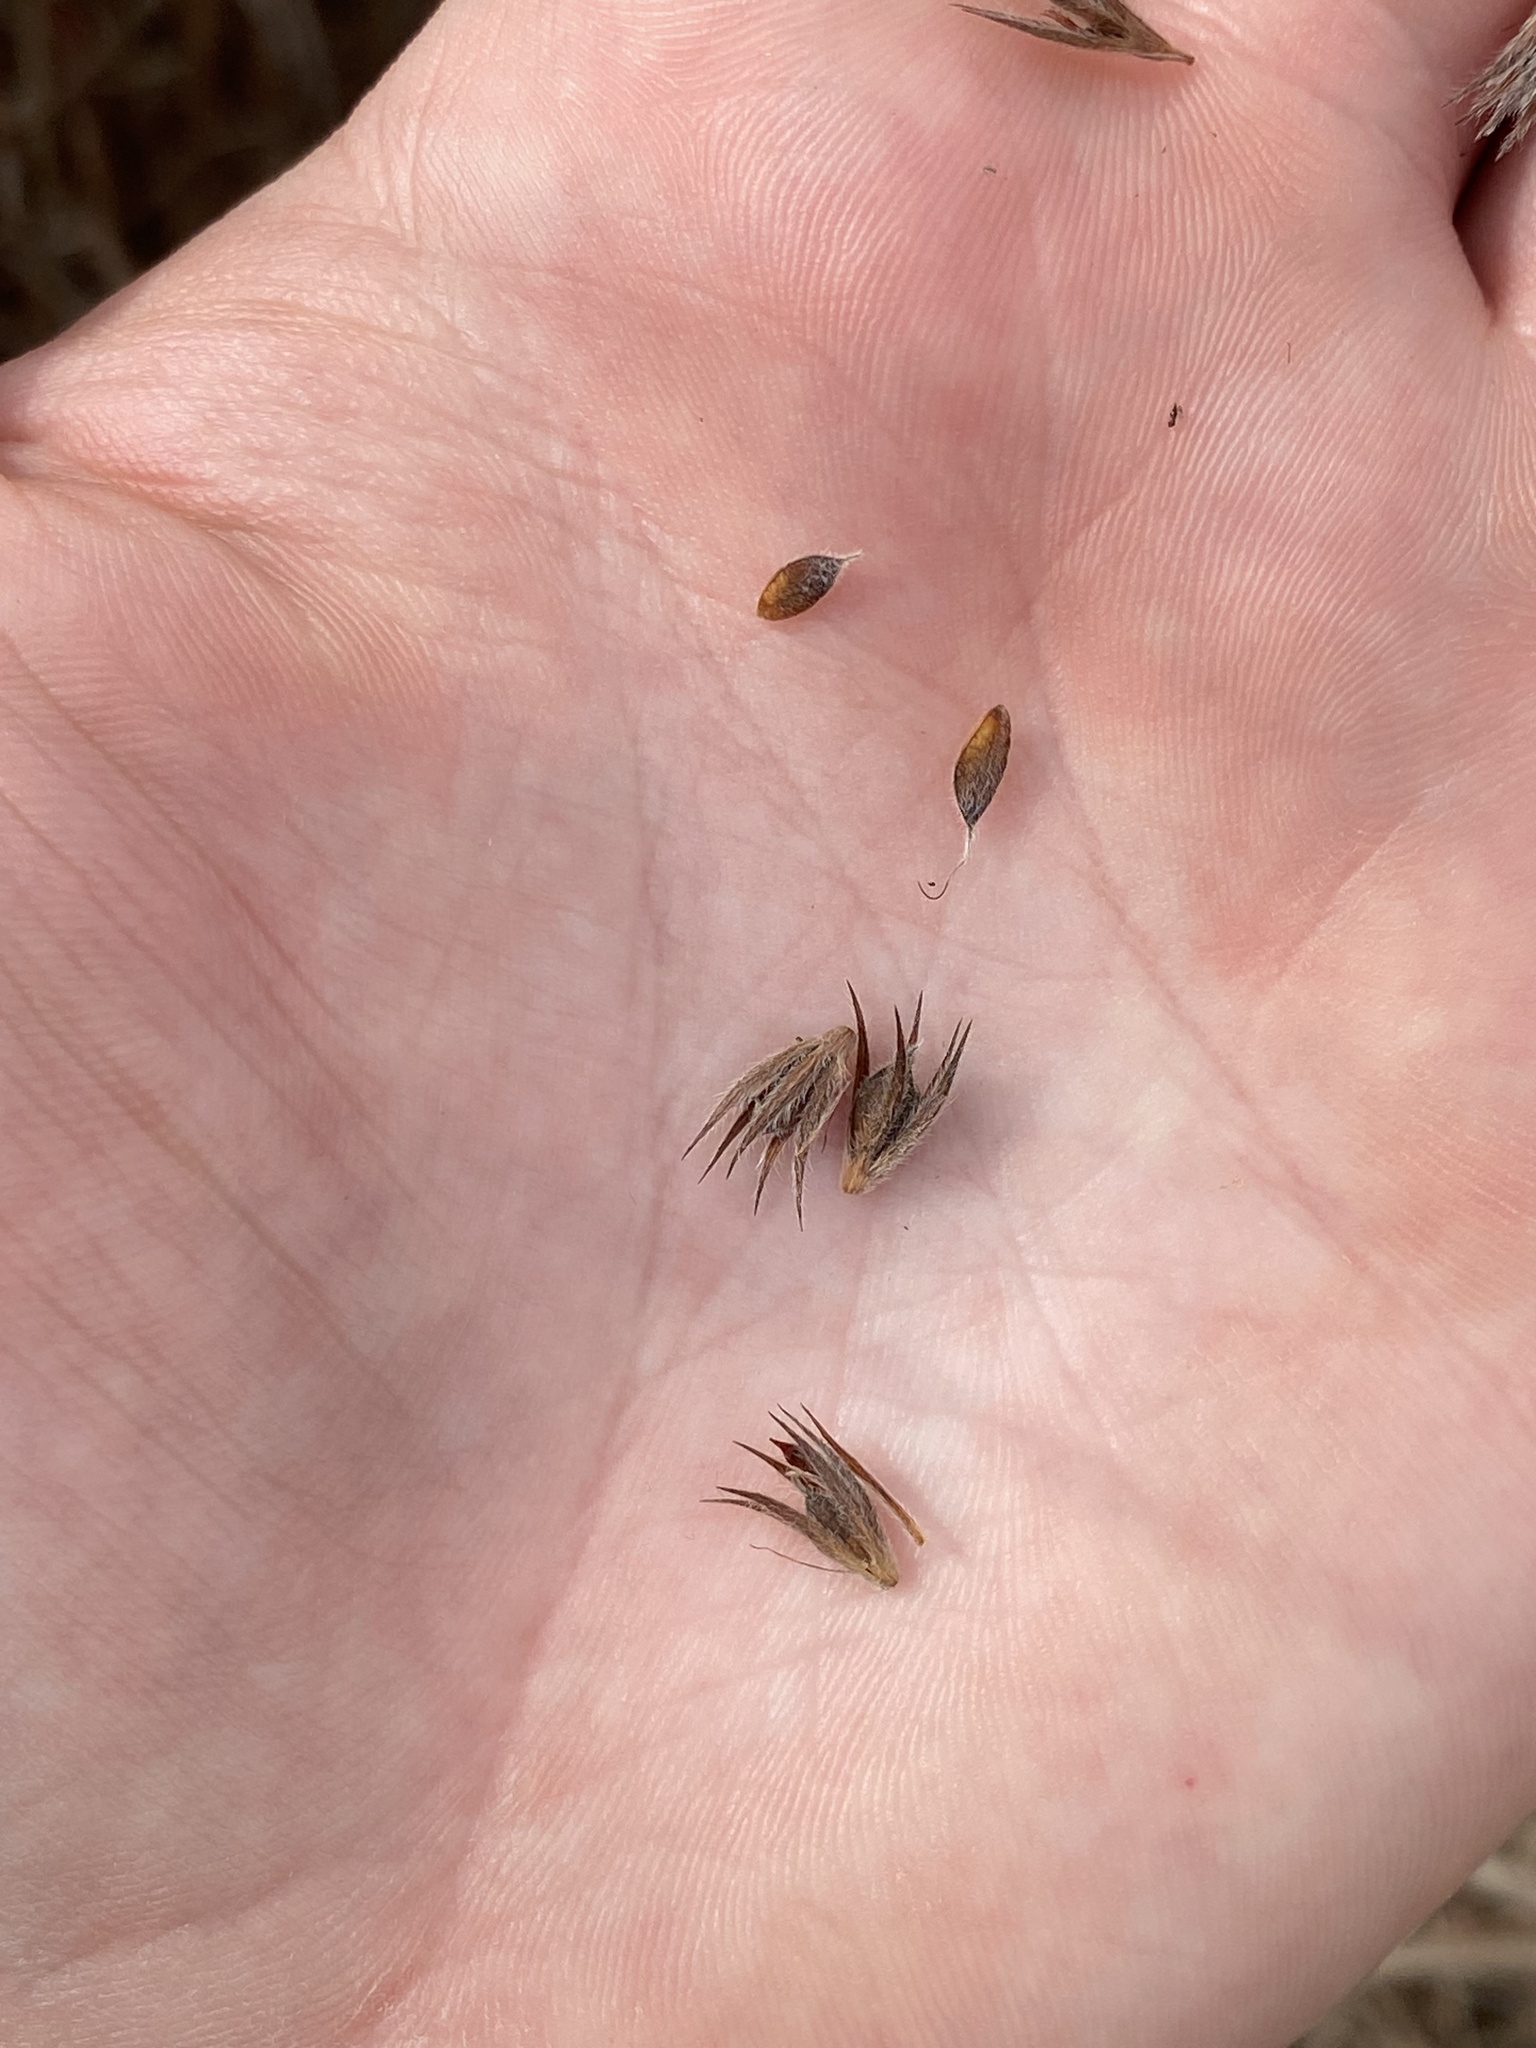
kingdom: Plantae
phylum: Tracheophyta
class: Magnoliopsida
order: Fabales
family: Fabaceae
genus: Lespedeza
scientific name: Lespedeza capitata
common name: Dusty clover
